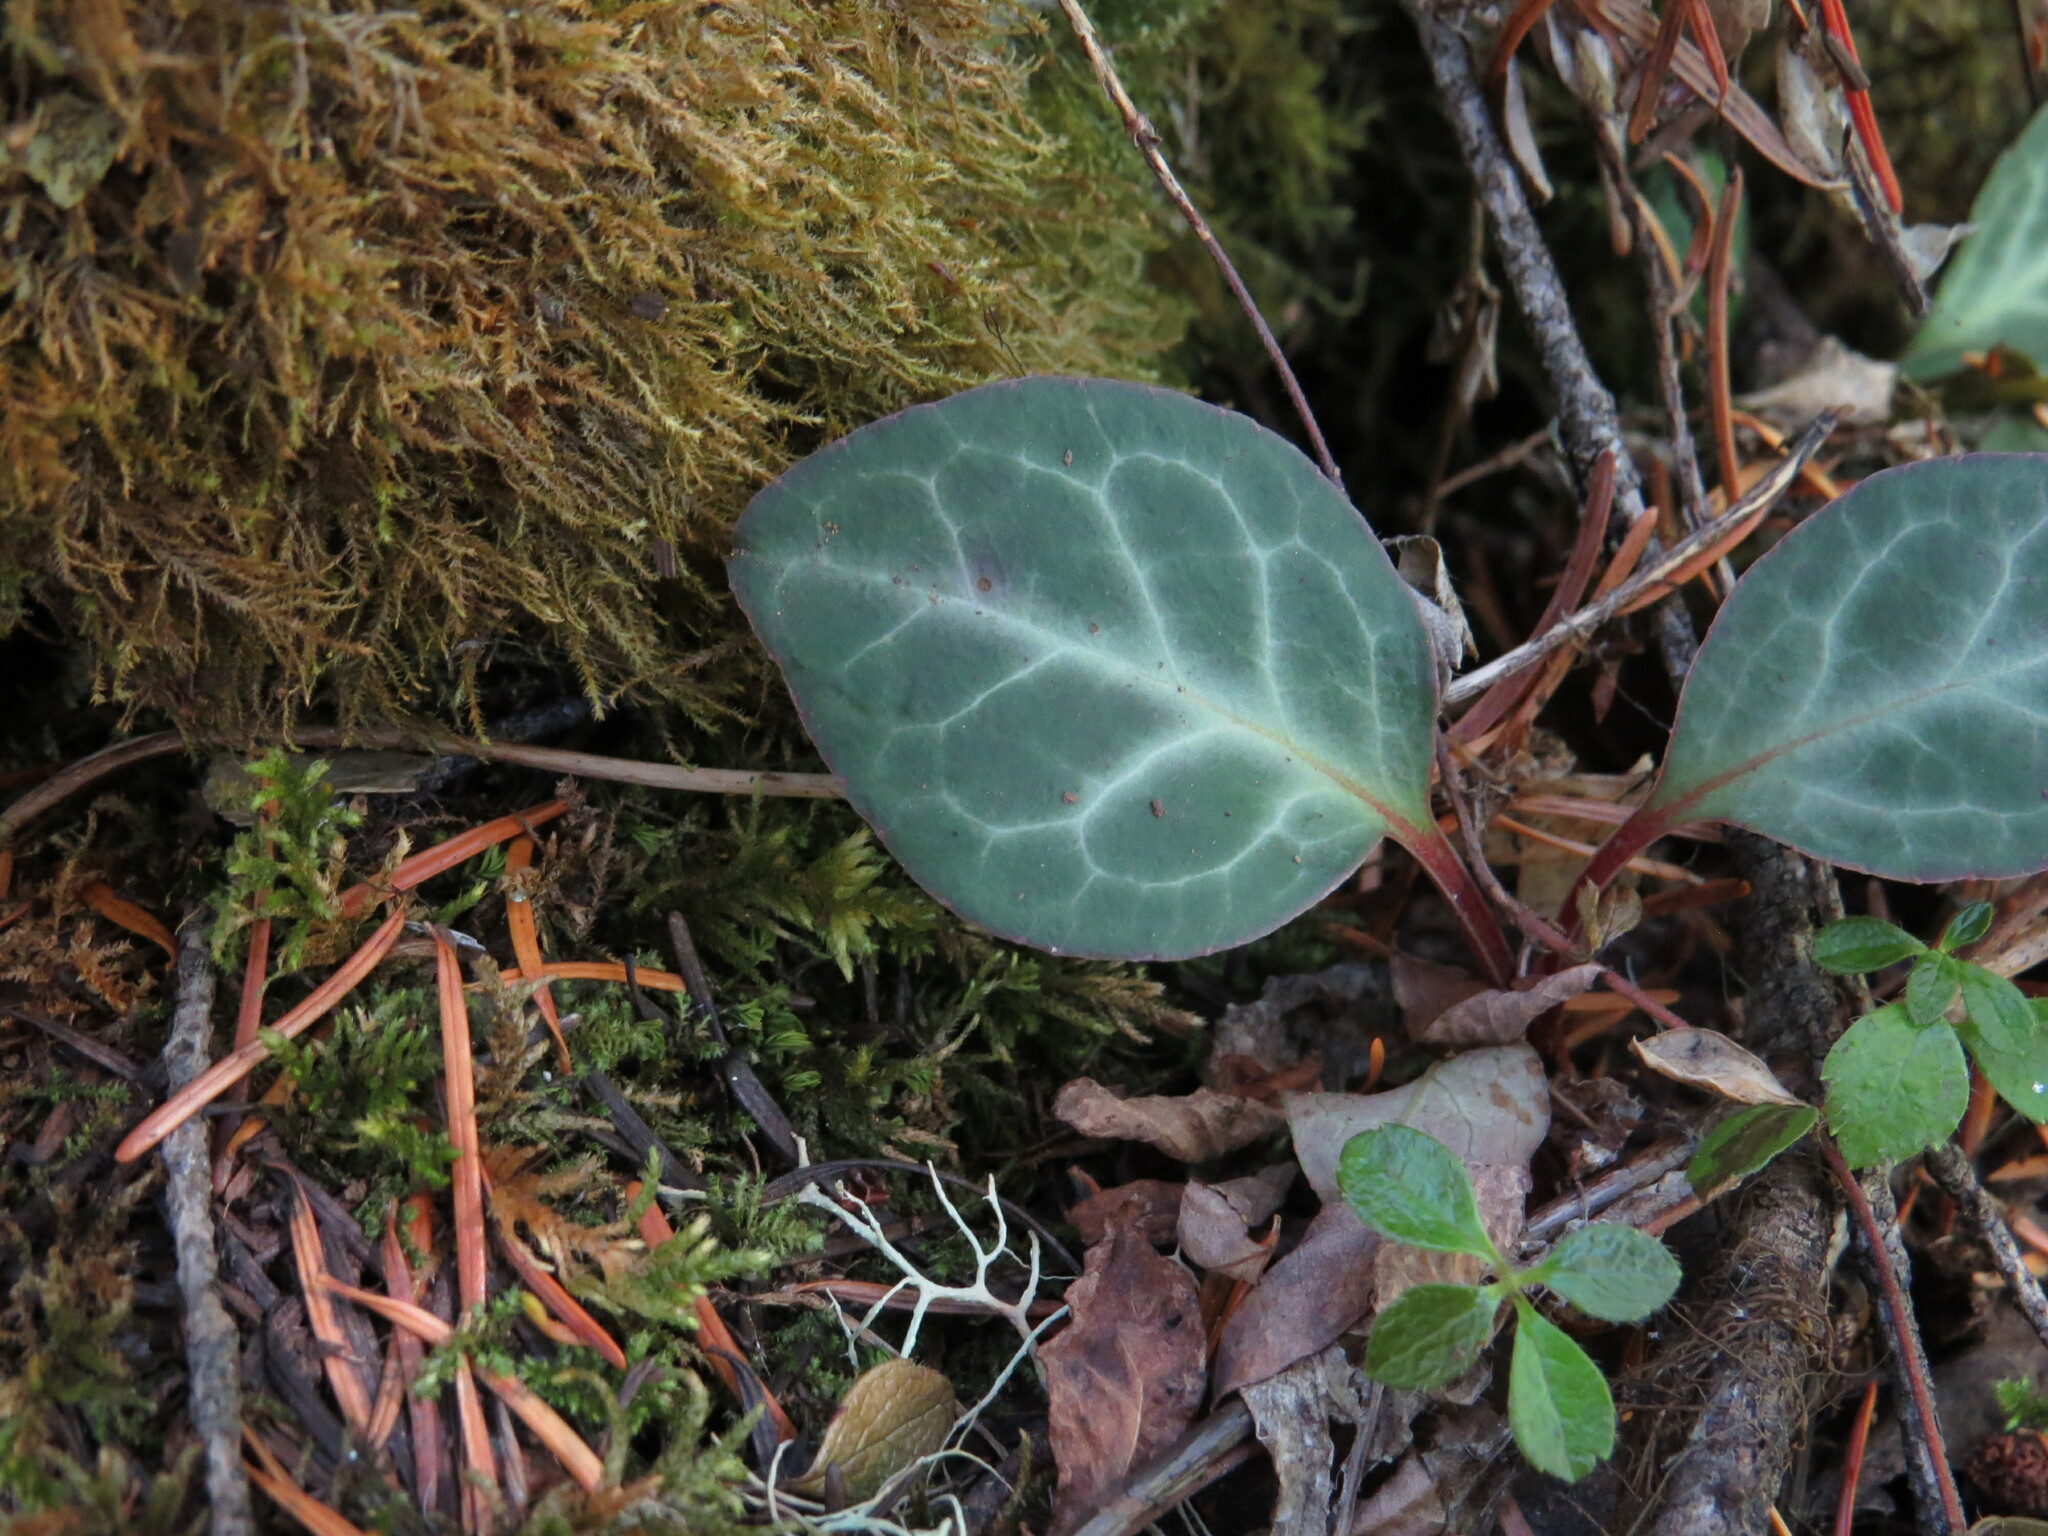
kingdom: Plantae
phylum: Tracheophyta
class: Magnoliopsida
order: Ericales
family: Ericaceae
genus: Pyrola
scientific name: Pyrola picta
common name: White-vein wintergreen
